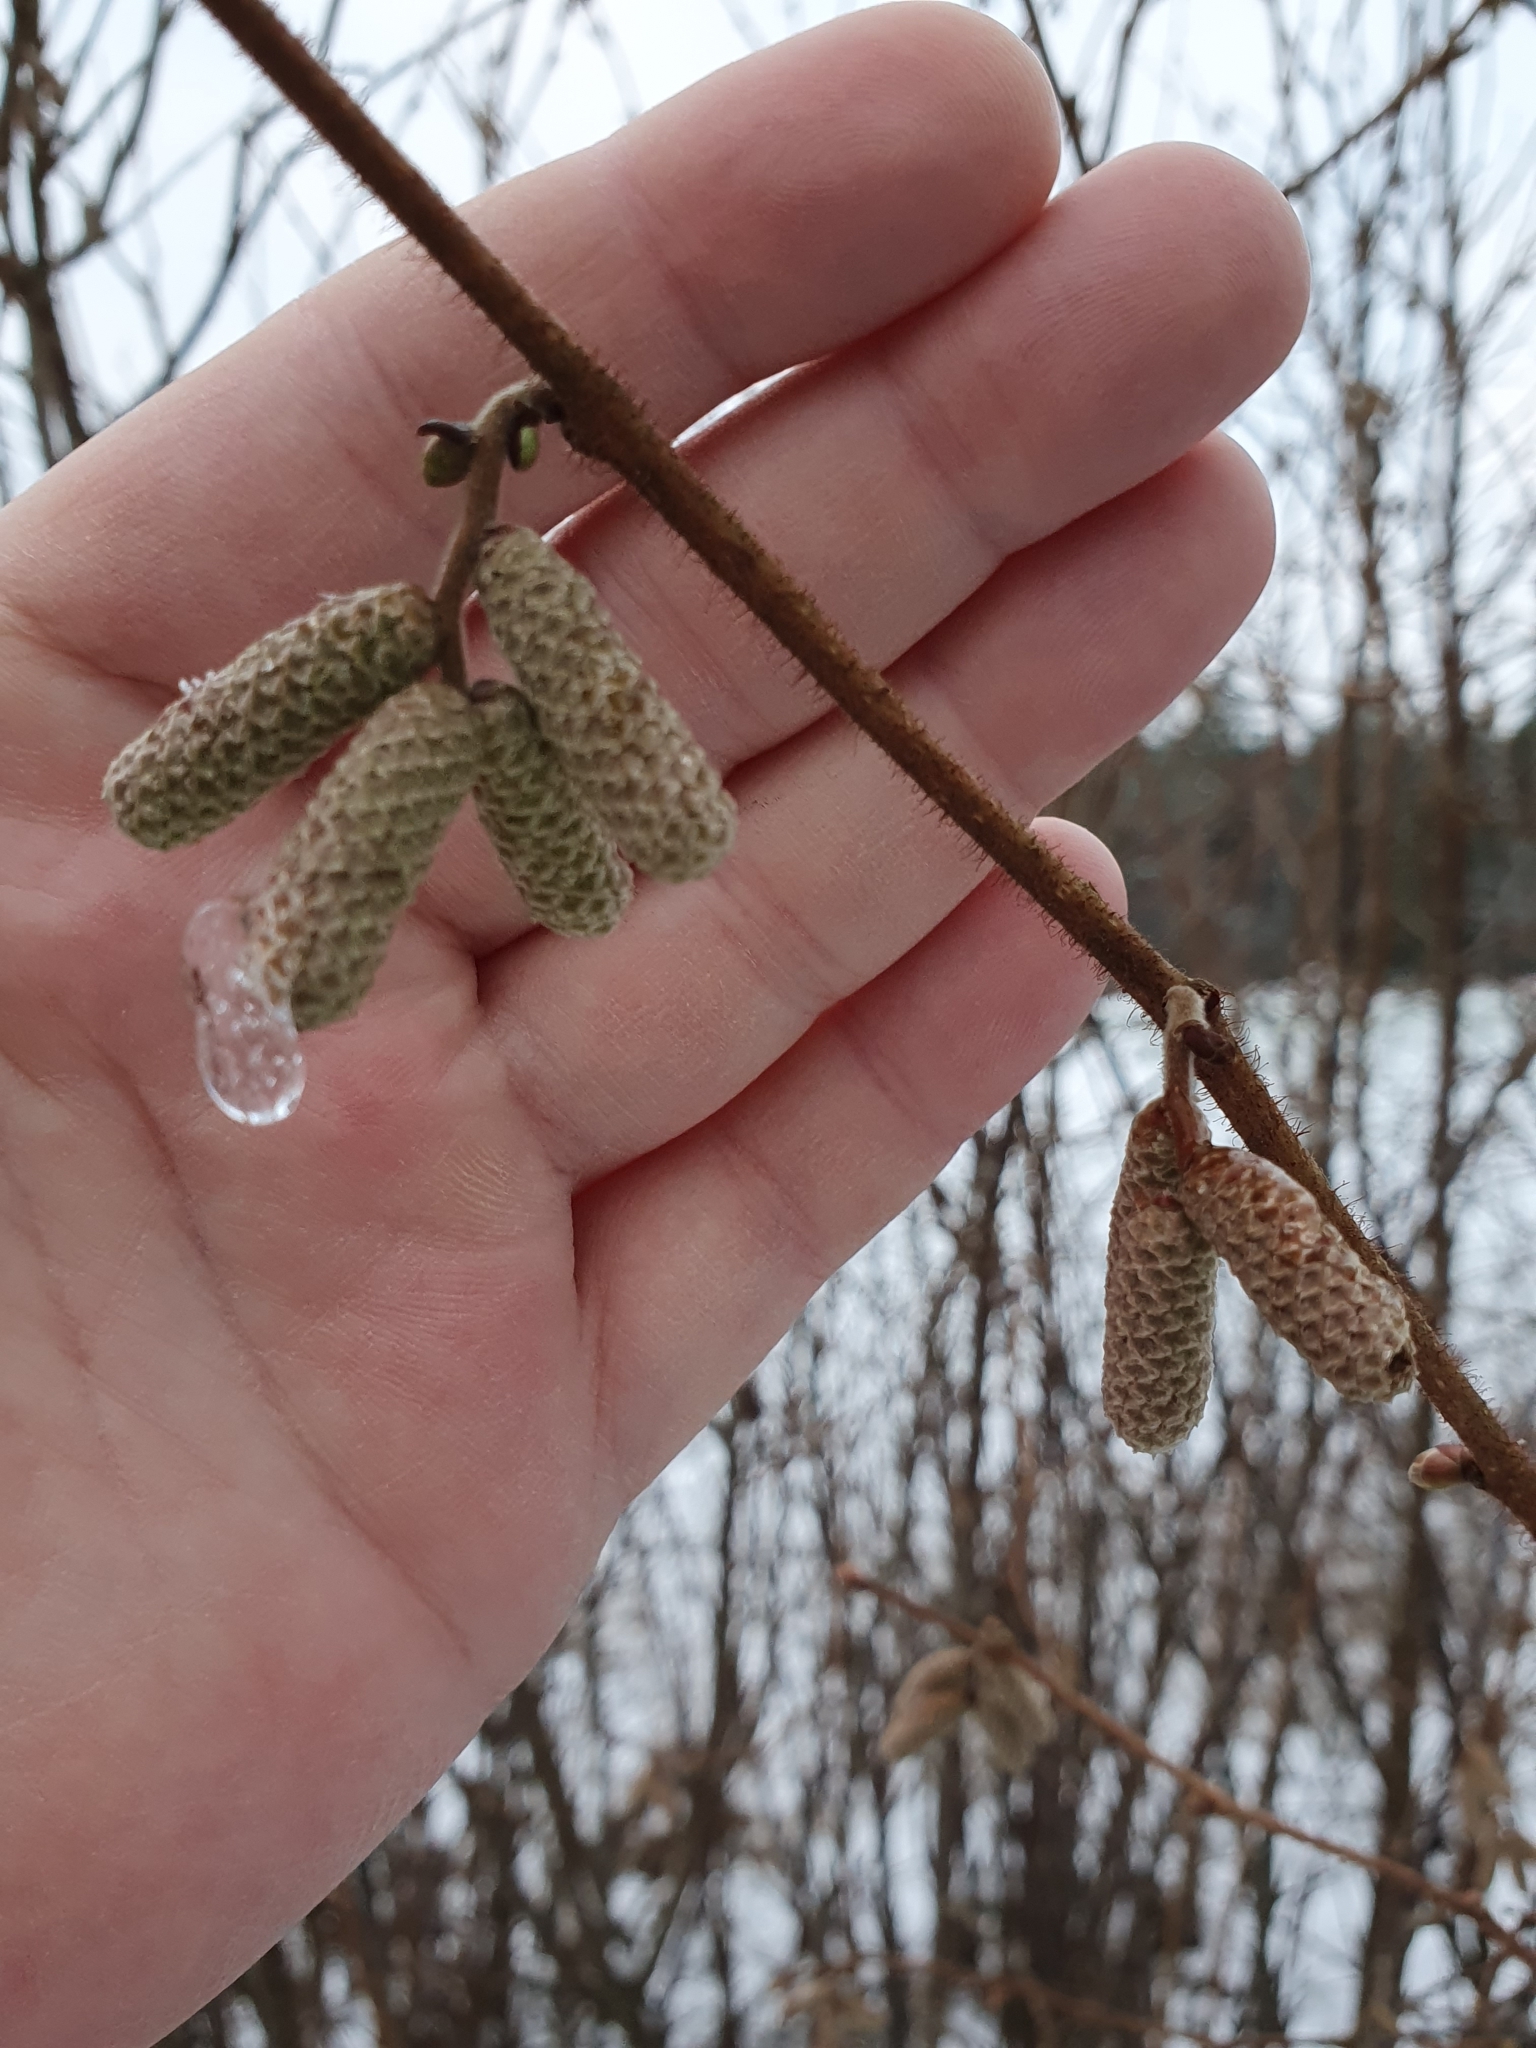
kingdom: Plantae
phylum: Tracheophyta
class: Magnoliopsida
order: Fagales
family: Betulaceae
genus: Corylus
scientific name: Corylus avellana
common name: European hazel
